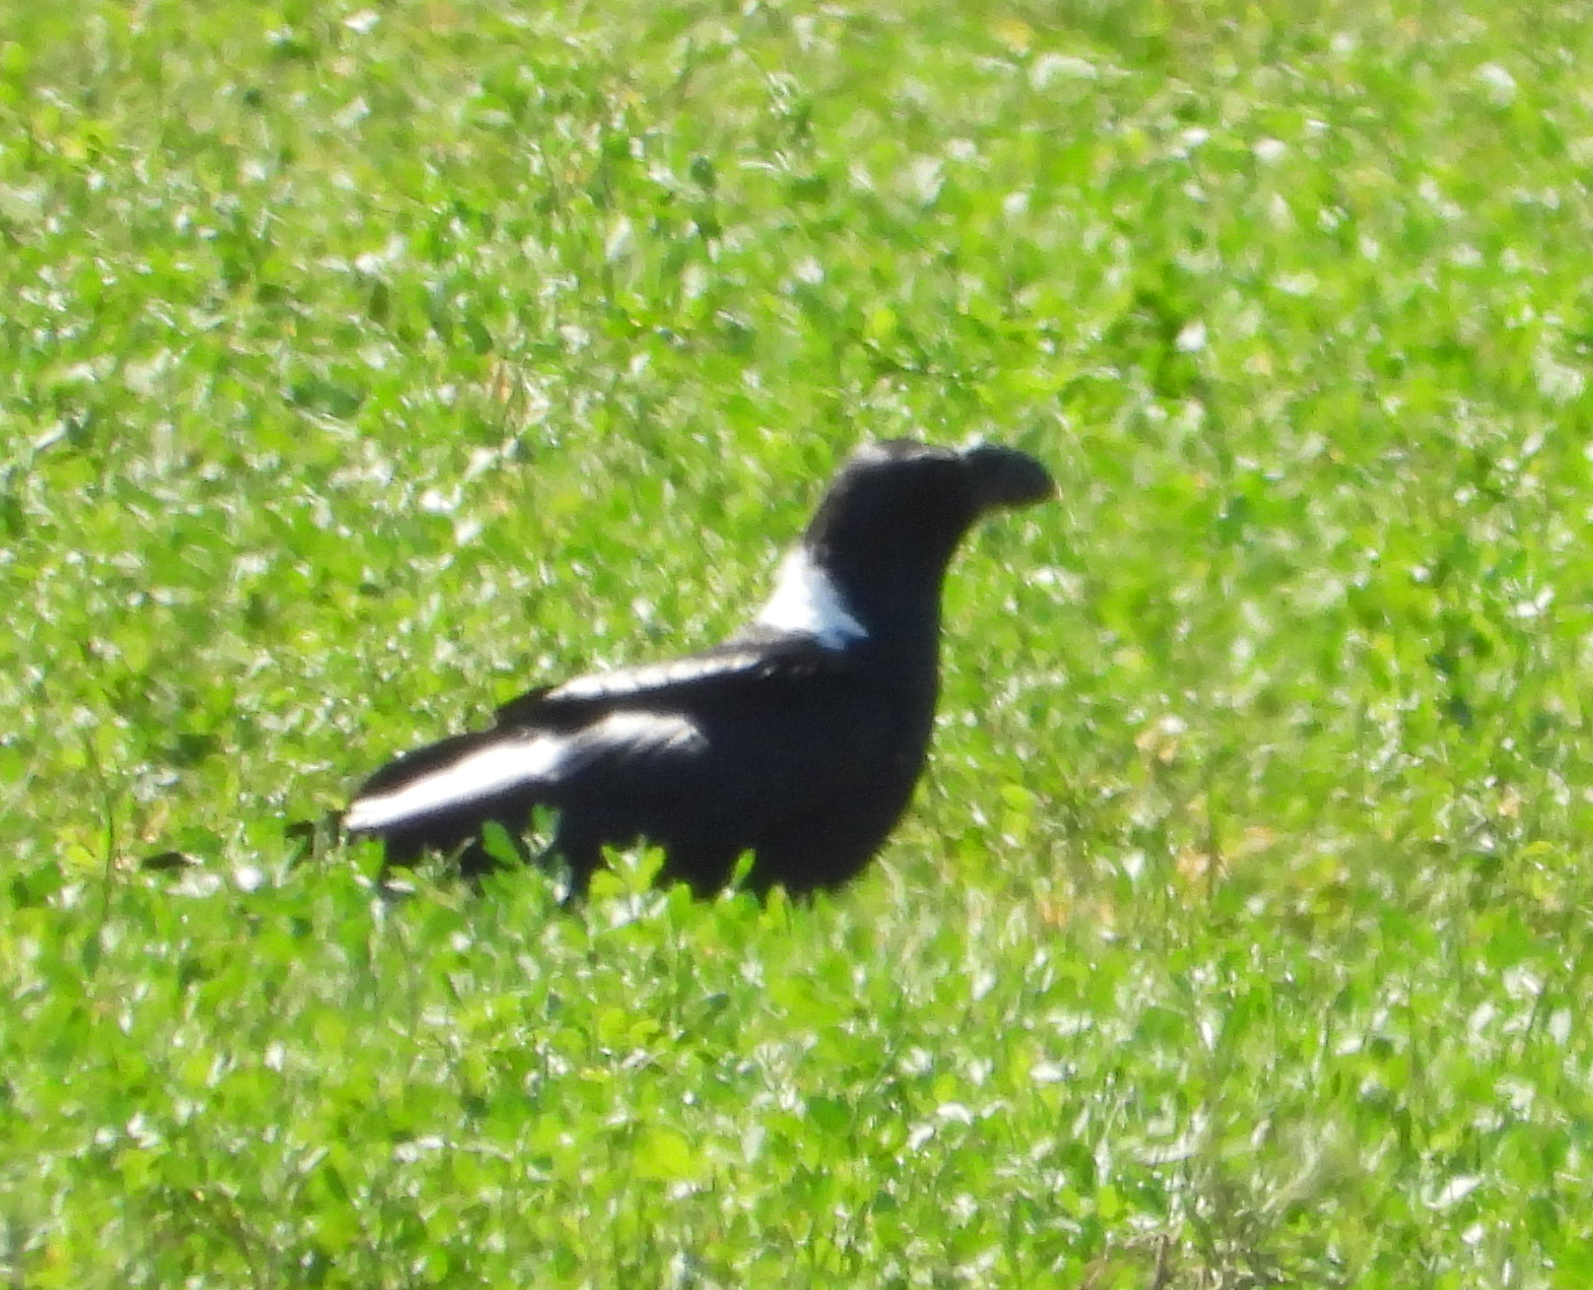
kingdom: Animalia
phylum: Chordata
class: Aves
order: Passeriformes
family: Corvidae
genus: Corvus
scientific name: Corvus albicollis
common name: White-necked raven
